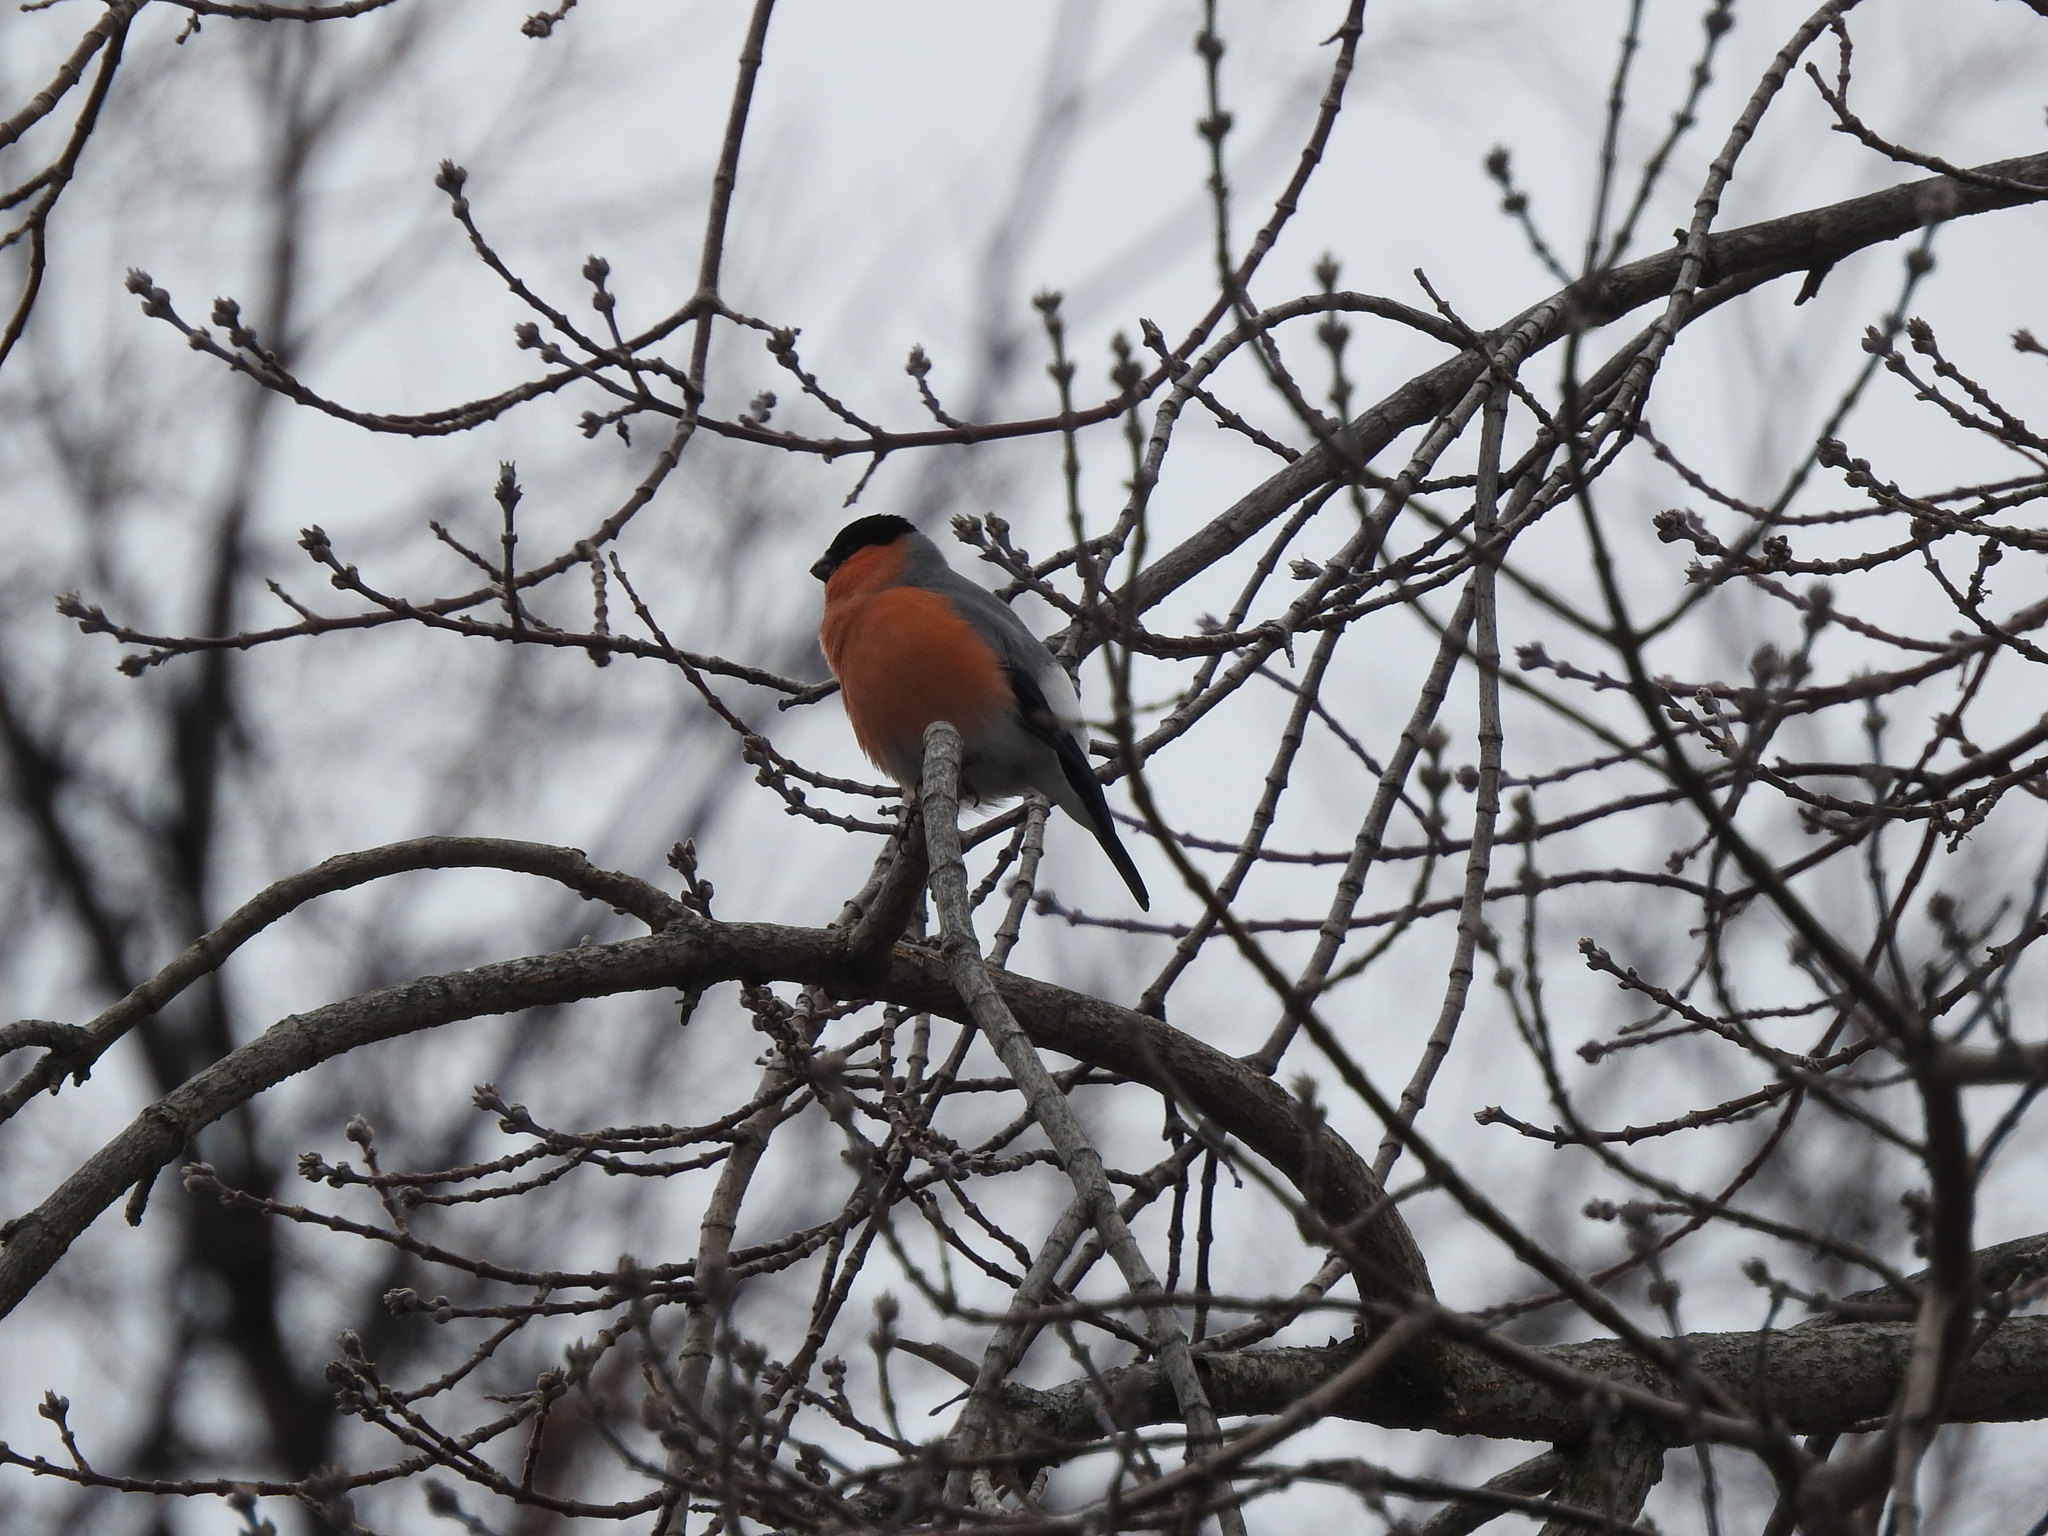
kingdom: Animalia
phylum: Chordata
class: Aves
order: Passeriformes
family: Fringillidae
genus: Pyrrhula
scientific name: Pyrrhula pyrrhula
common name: Eurasian bullfinch
